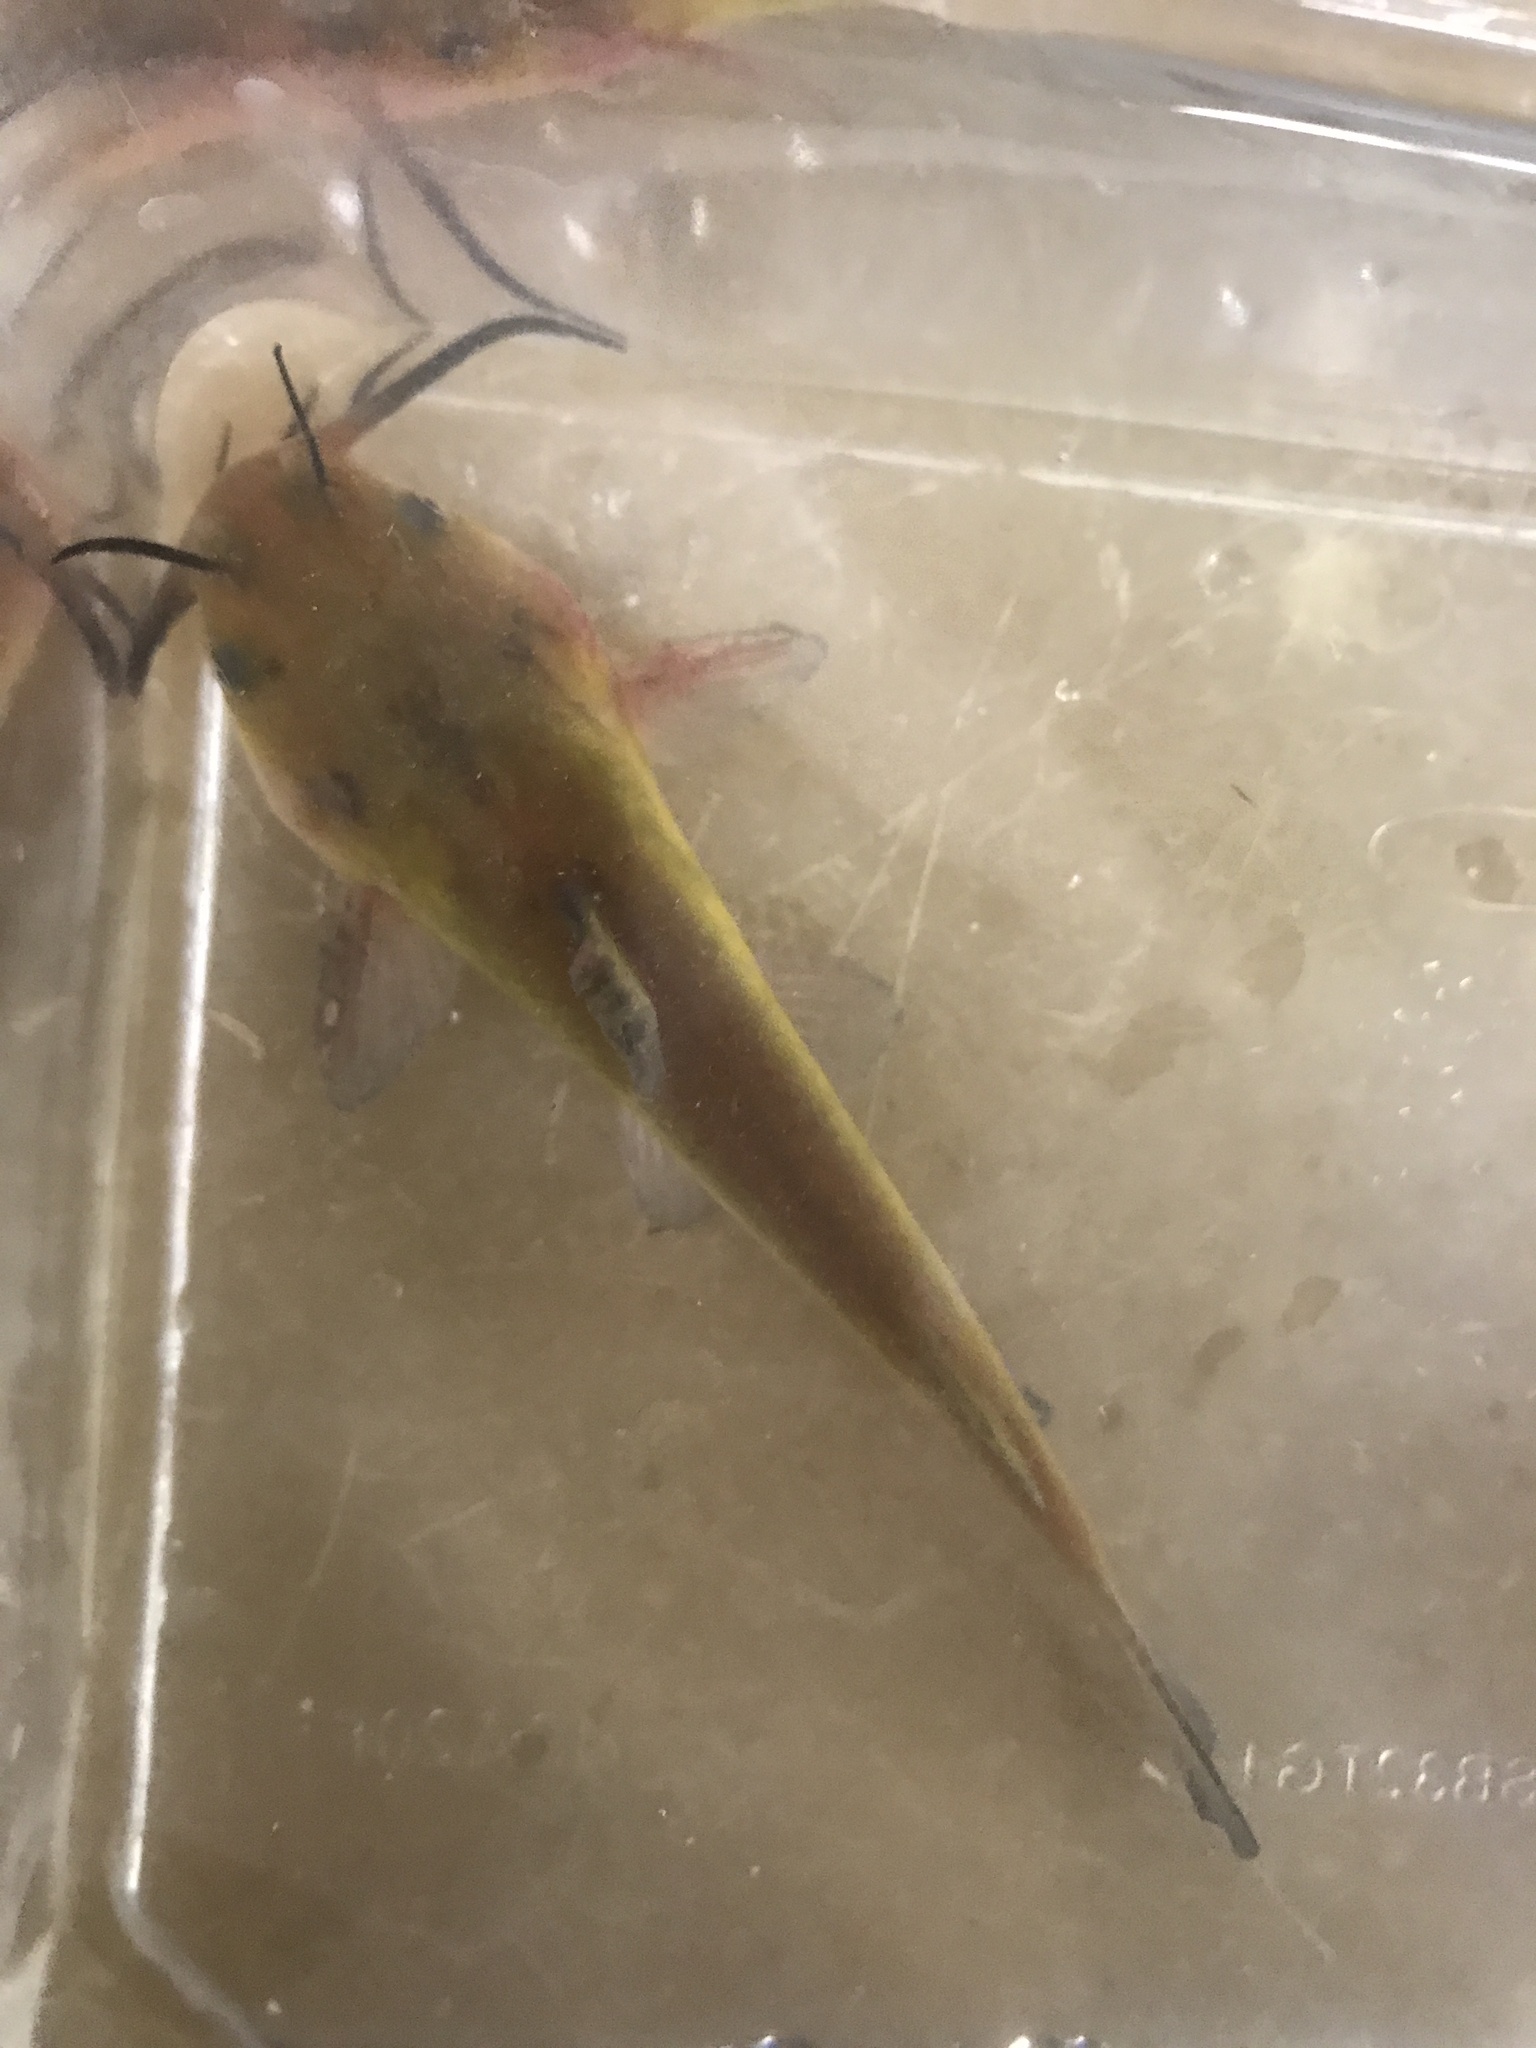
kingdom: Animalia
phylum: Chordata
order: Siluriformes
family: Ictaluridae
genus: Ameiurus
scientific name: Ameiurus nebulosus
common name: Brown bullhead
